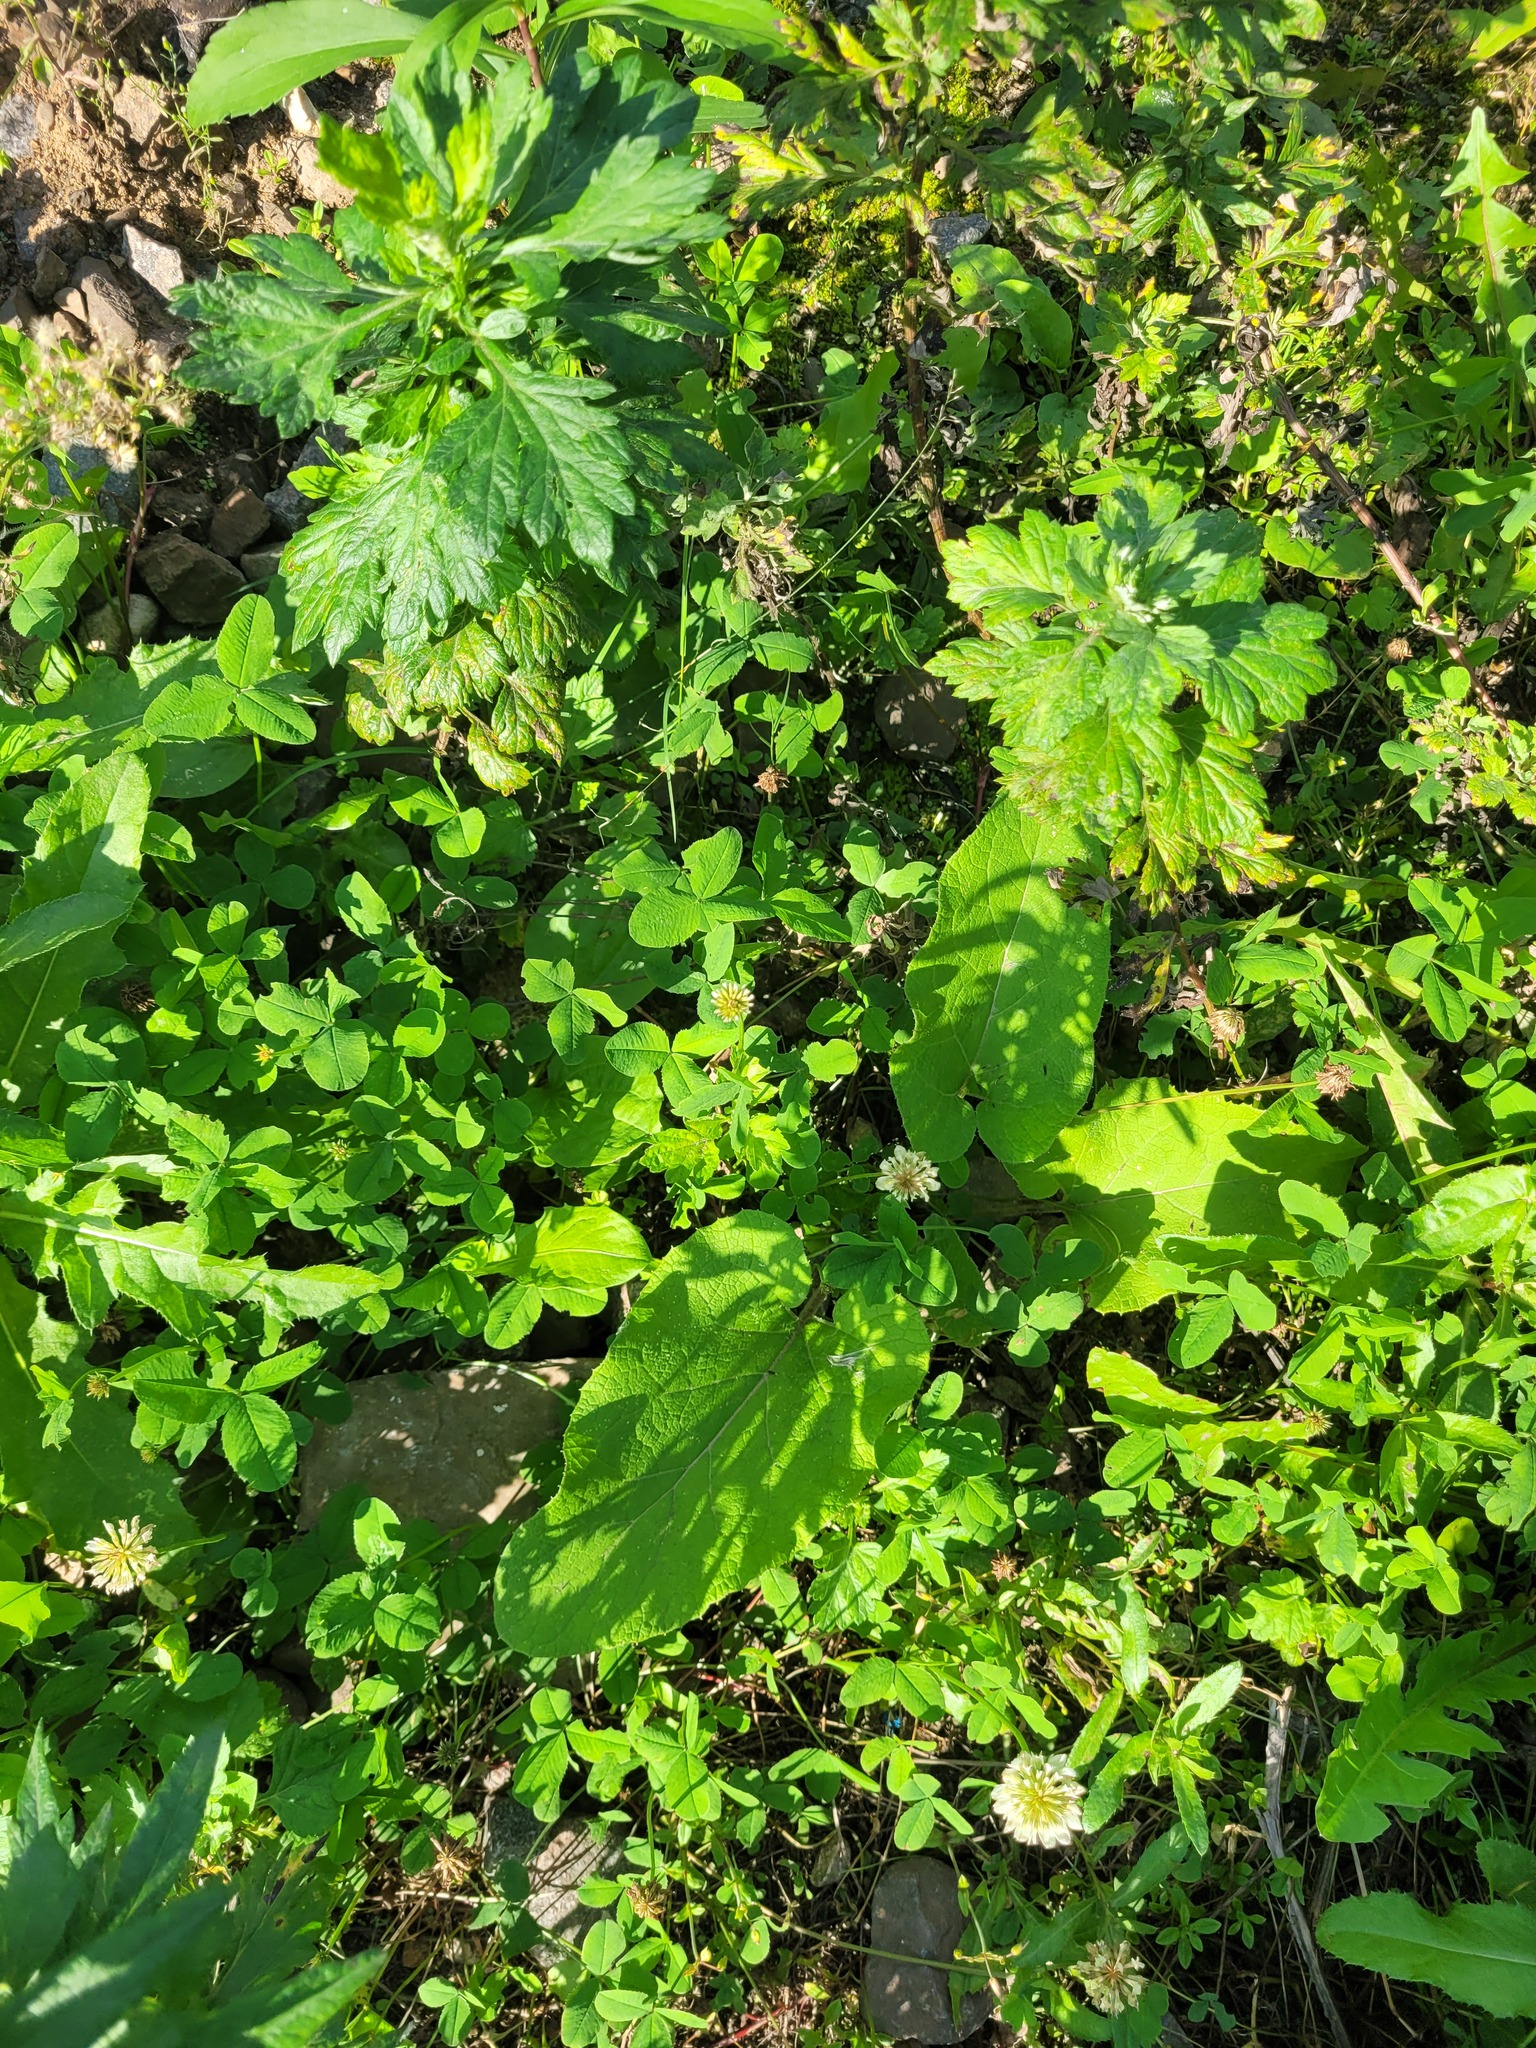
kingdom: Plantae
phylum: Tracheophyta
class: Magnoliopsida
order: Fabales
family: Fabaceae
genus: Trifolium
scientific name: Trifolium repens
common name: White clover
